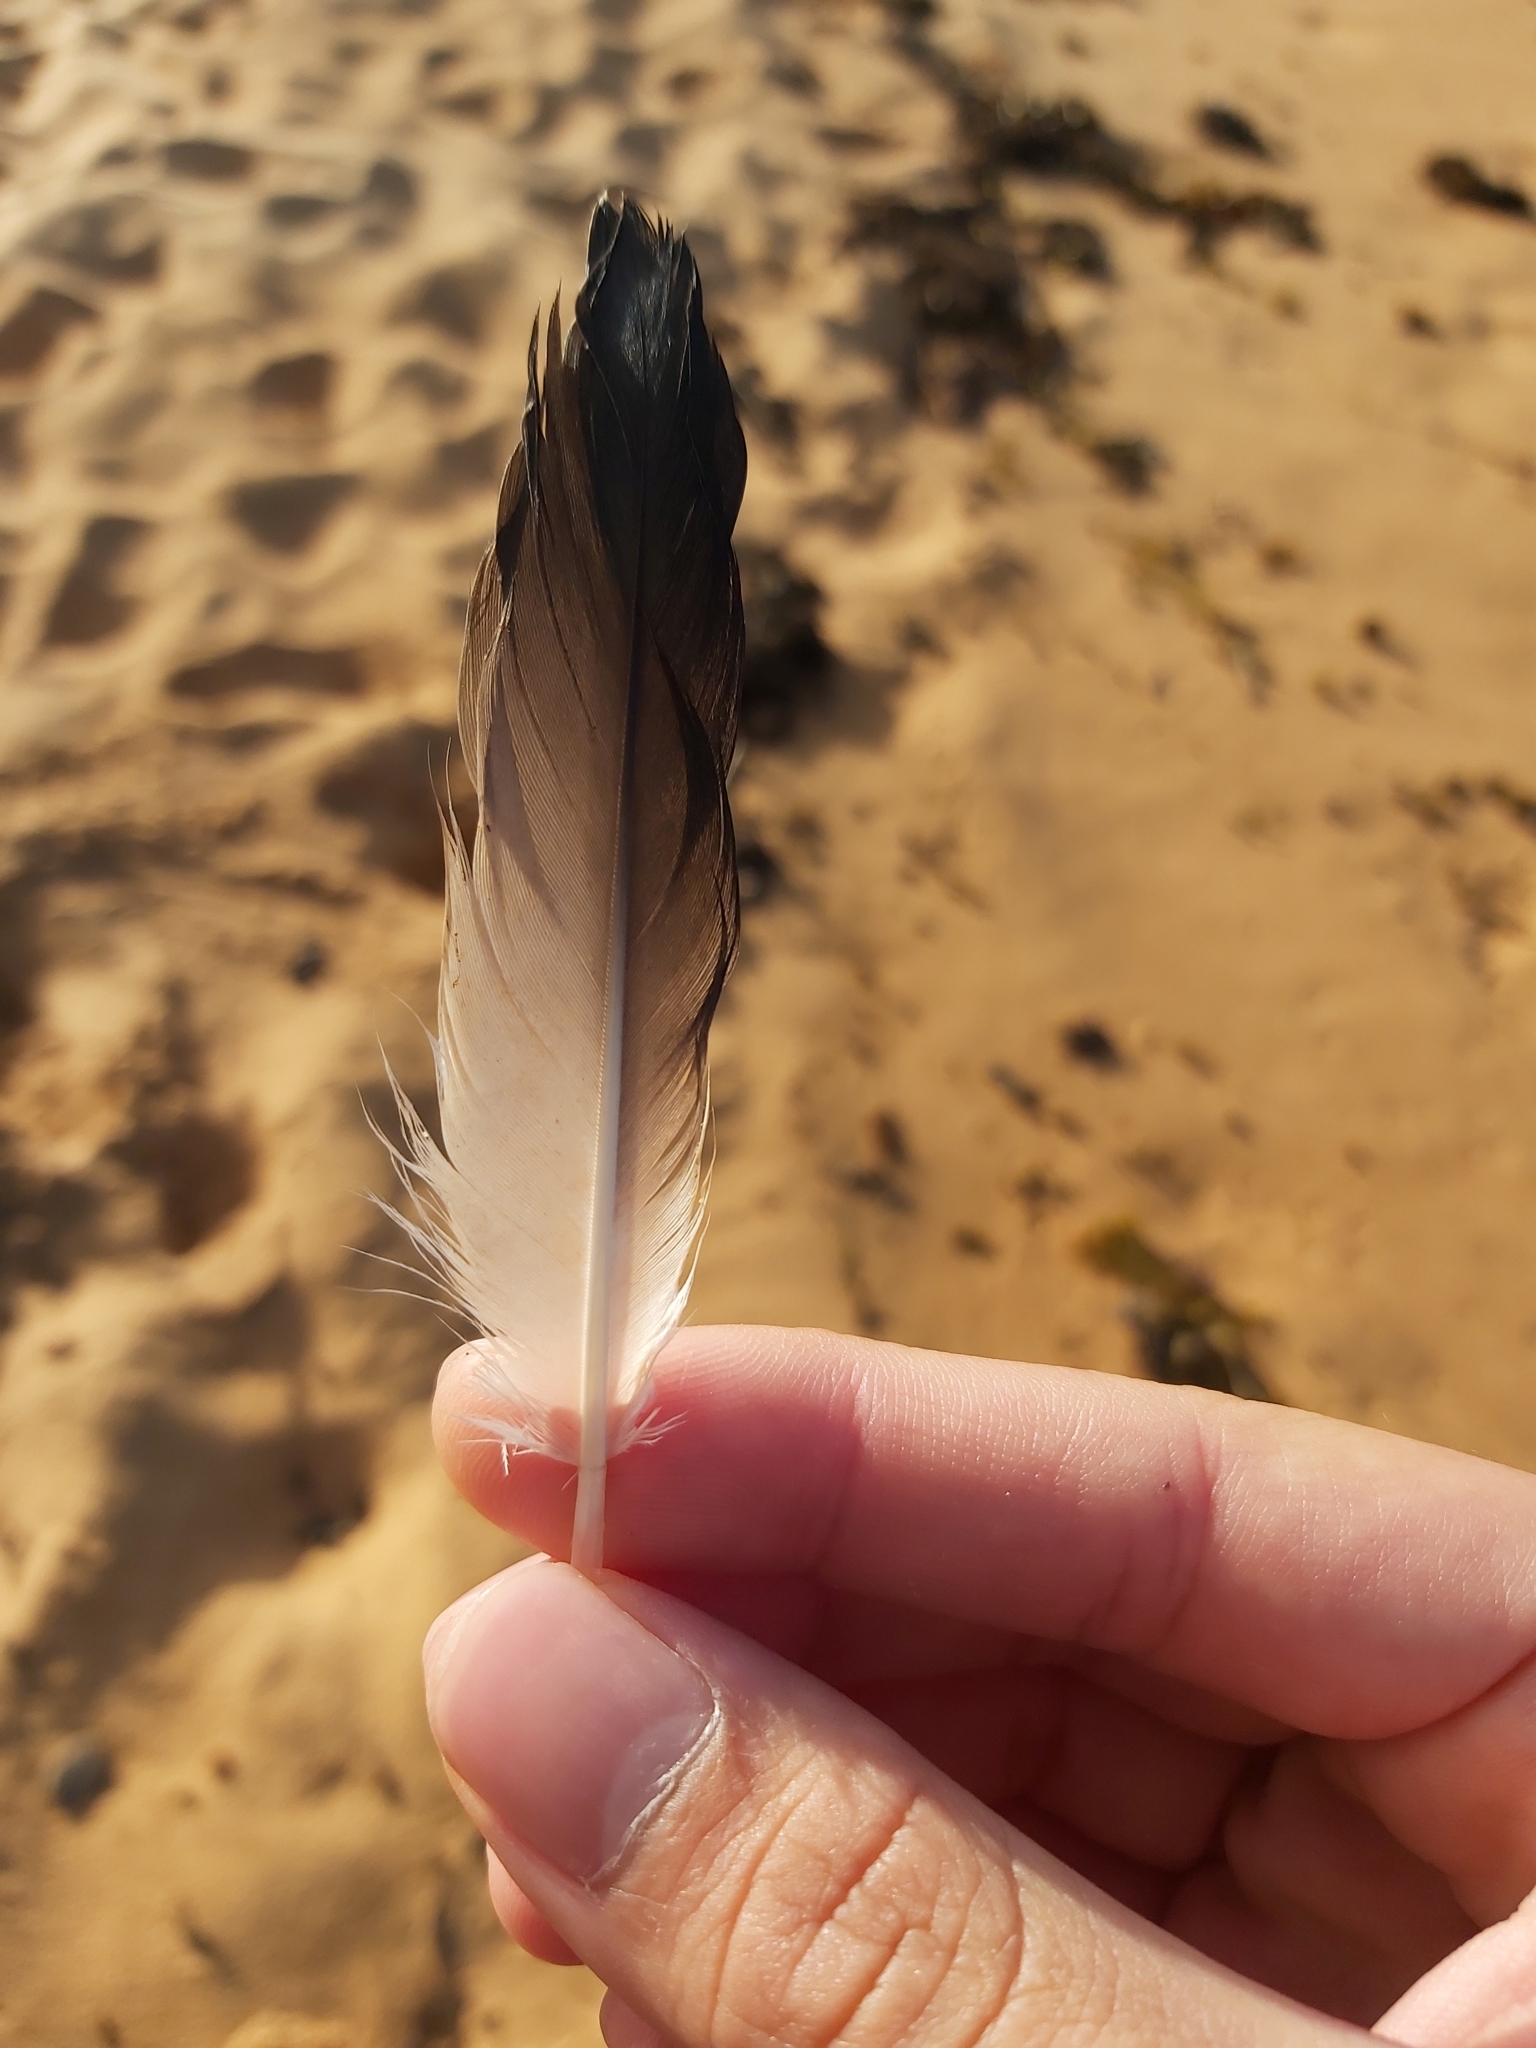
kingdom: Animalia
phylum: Chordata
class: Aves
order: Suliformes
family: Sulidae
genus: Morus
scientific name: Morus serrator
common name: Australasian gannet
